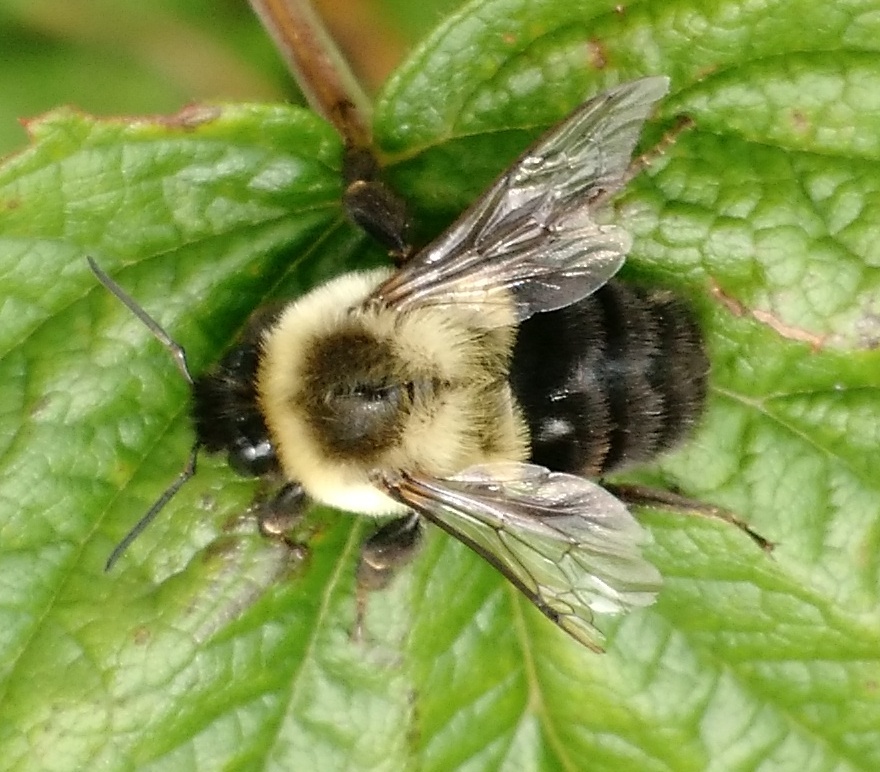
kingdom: Animalia
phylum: Arthropoda
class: Insecta
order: Hymenoptera
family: Apidae
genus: Bombus
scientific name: Bombus impatiens
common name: Common eastern bumble bee
